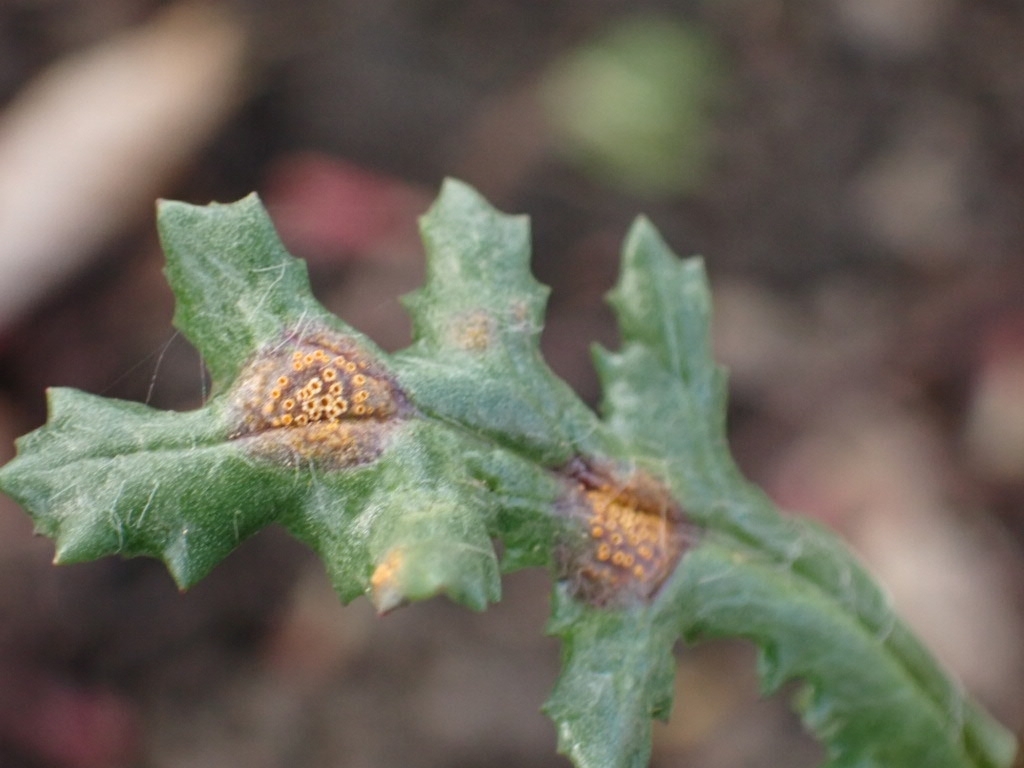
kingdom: Fungi
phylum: Basidiomycota
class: Pucciniomycetes
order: Pucciniales
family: Pucciniaceae
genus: Puccinia
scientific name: Puccinia lagenophorae
